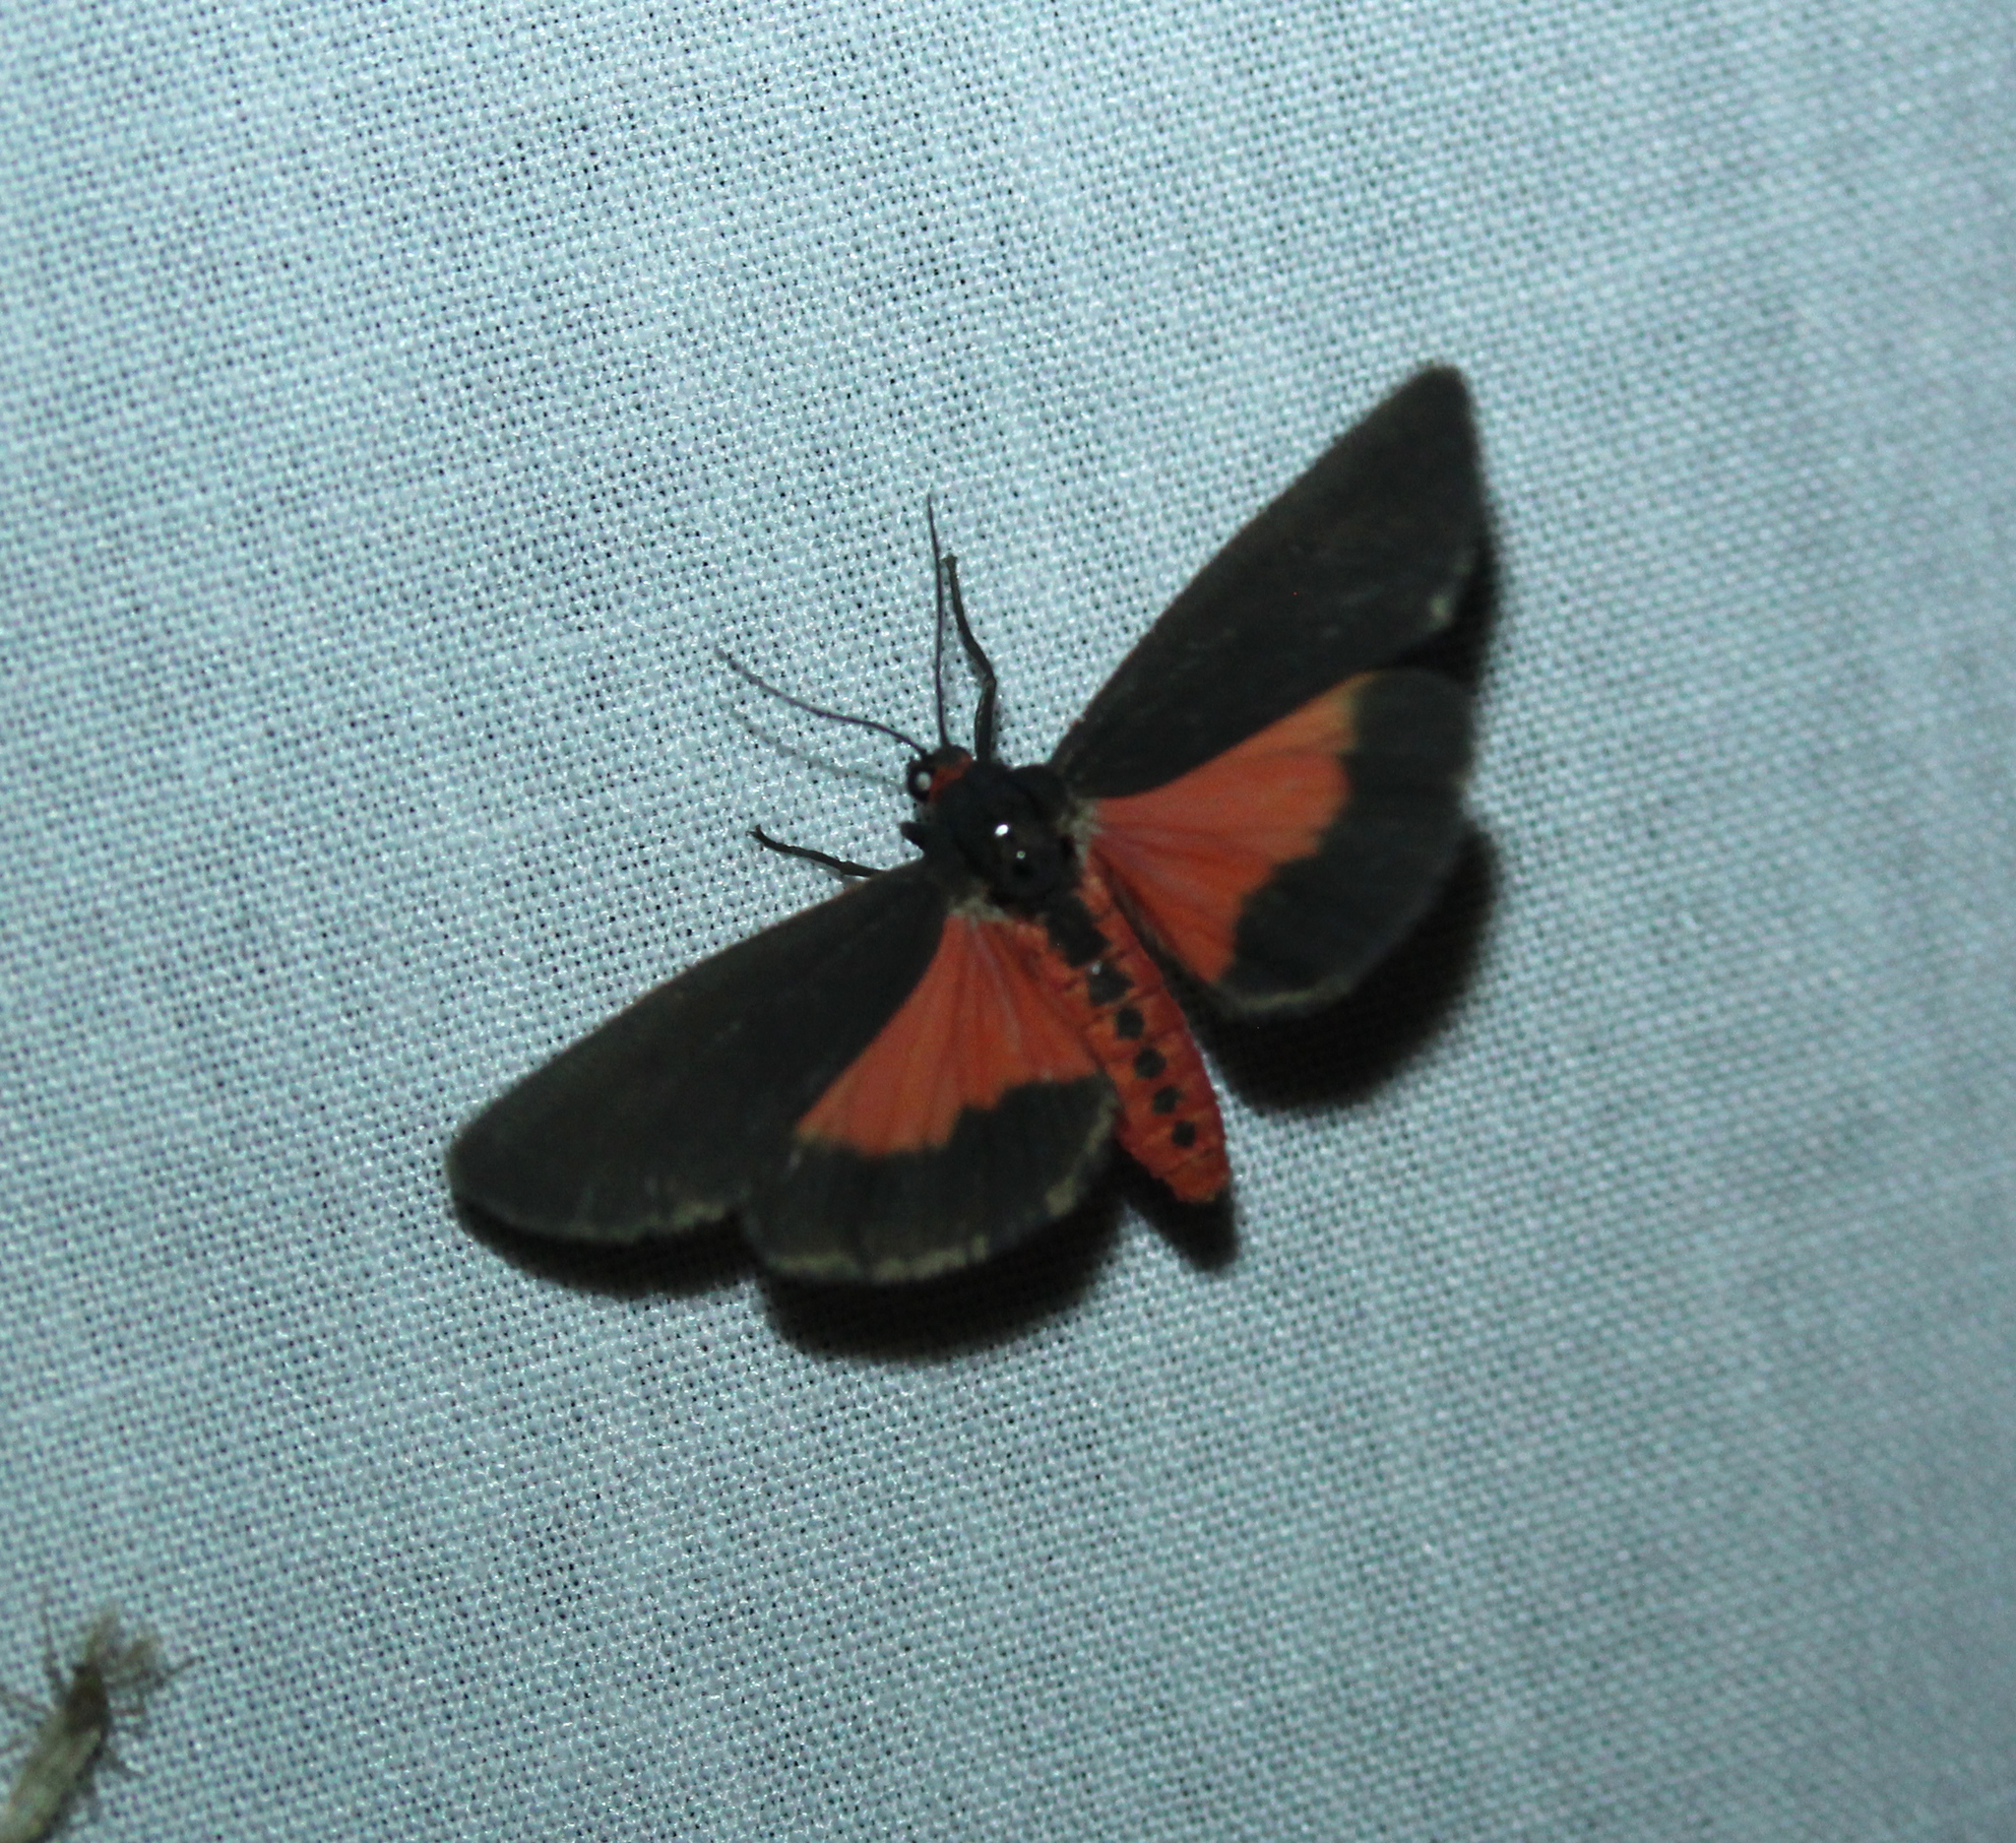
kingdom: Animalia
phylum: Arthropoda
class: Insecta
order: Lepidoptera
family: Erebidae
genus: Virbia
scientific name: Virbia laeta
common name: Joyful holomelina moth
